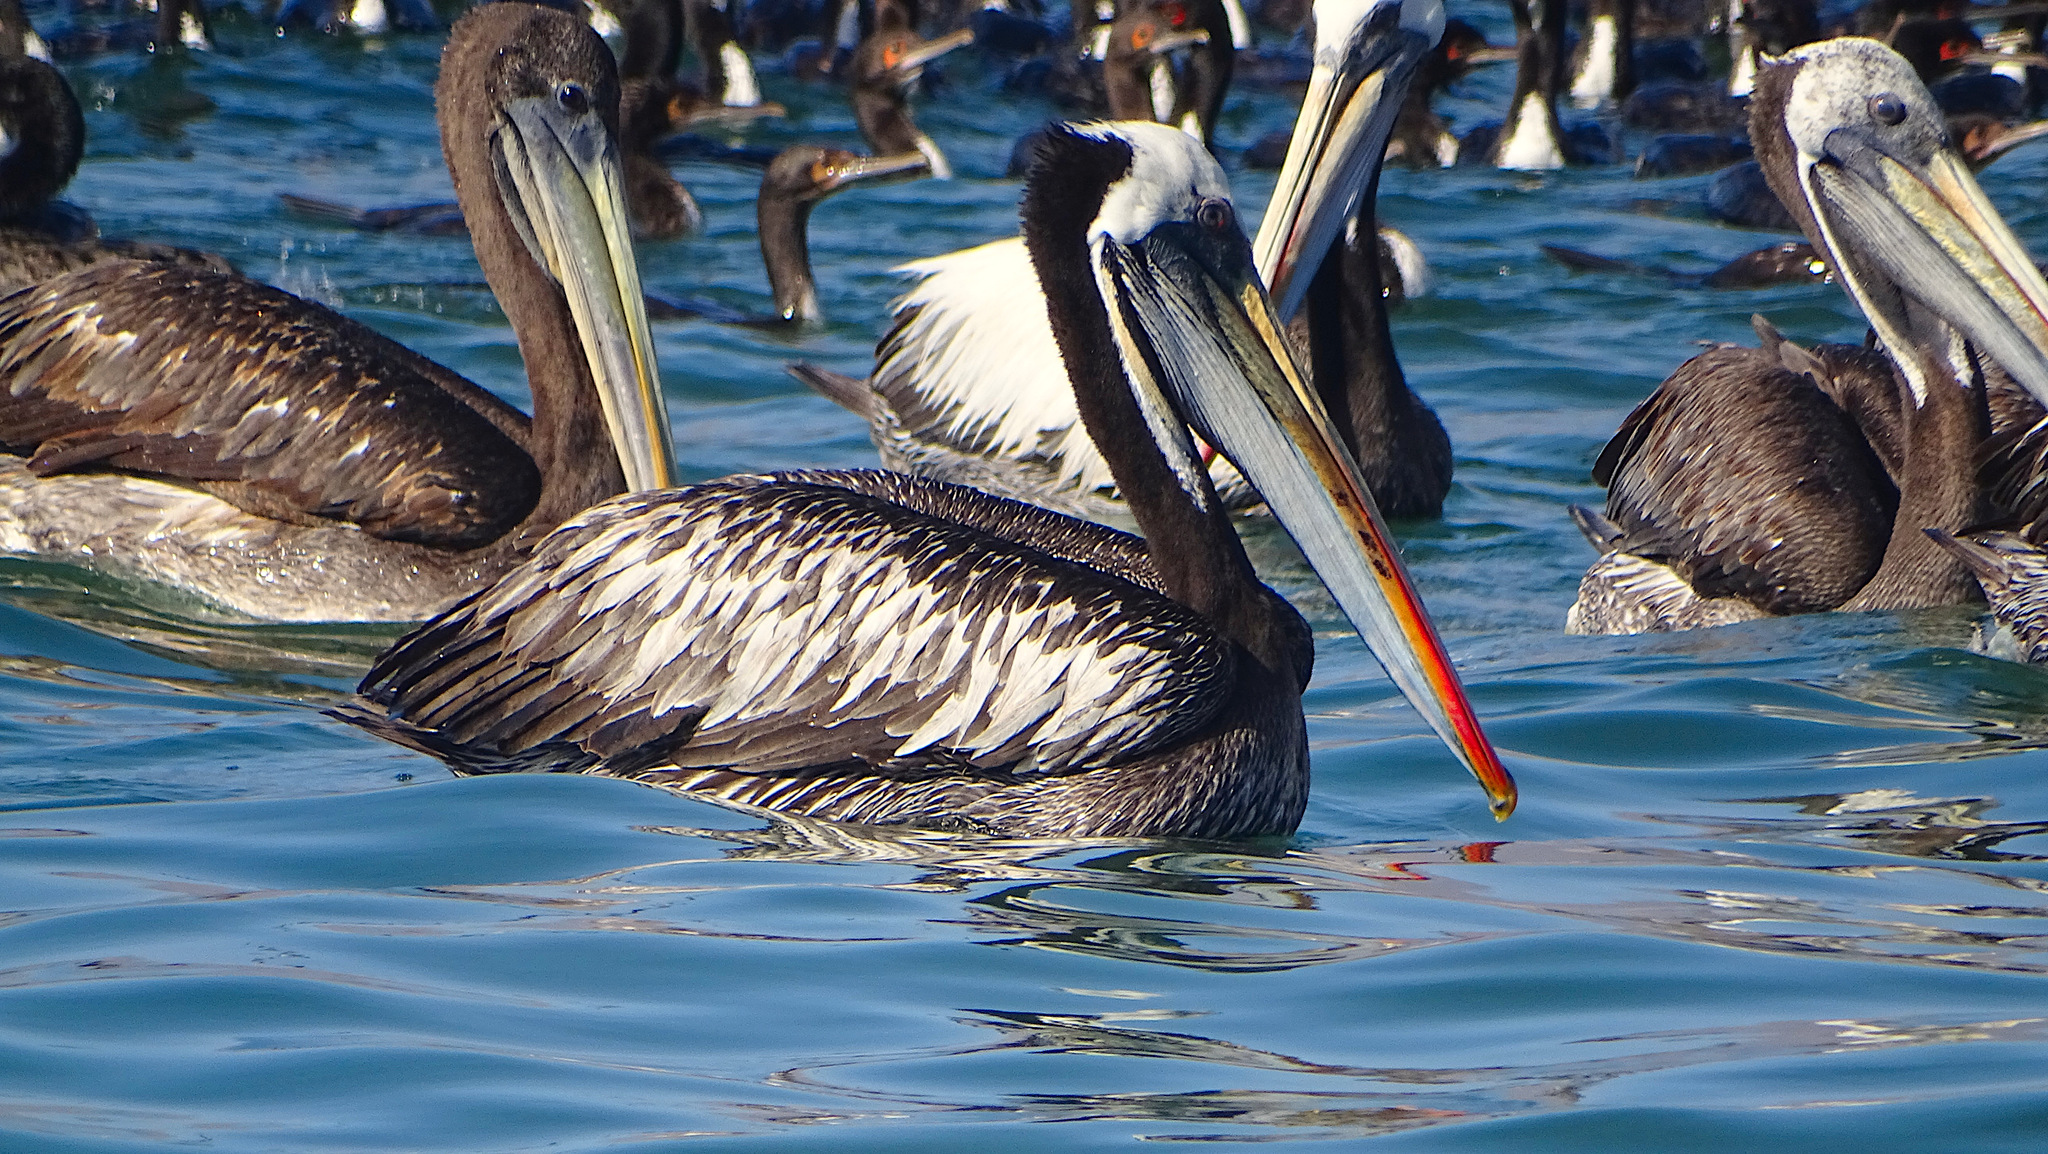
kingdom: Animalia
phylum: Chordata
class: Aves
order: Pelecaniformes
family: Pelecanidae
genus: Pelecanus
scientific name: Pelecanus thagus
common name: Peruvian pelican
